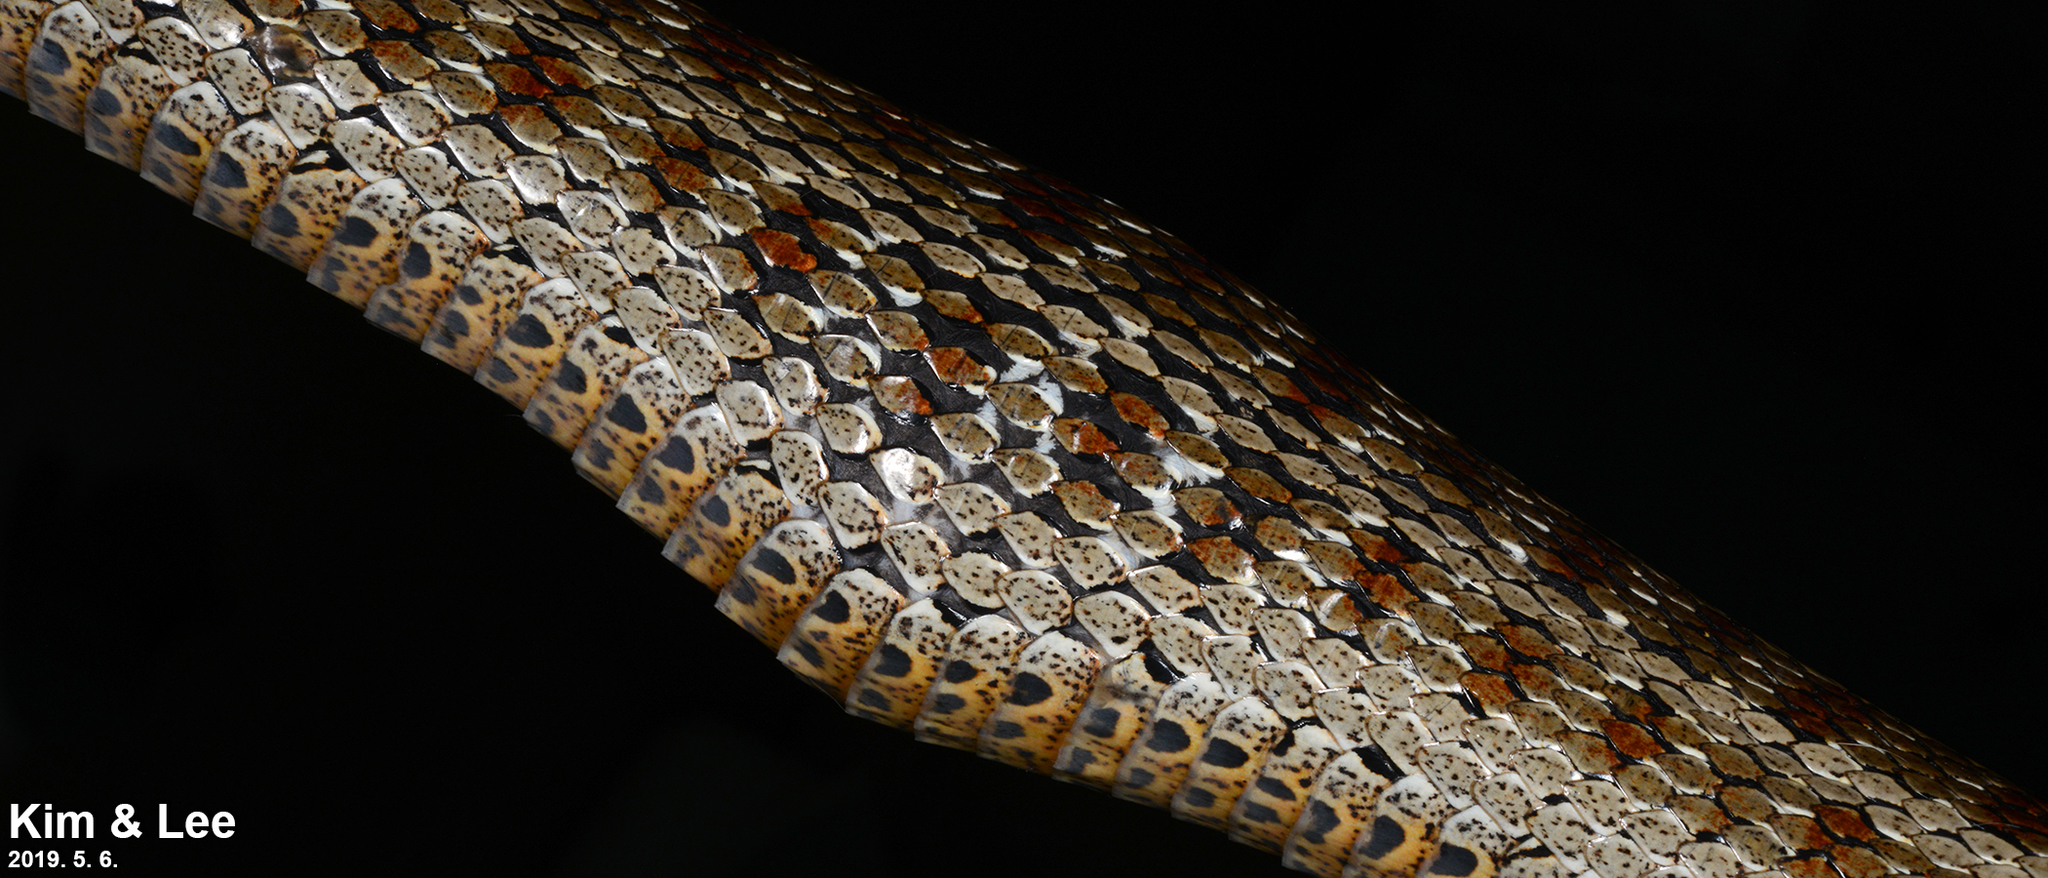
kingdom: Animalia
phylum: Chordata
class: Squamata
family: Colubridae
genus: Elaphe
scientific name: Elaphe dione
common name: Dione ratsnake
